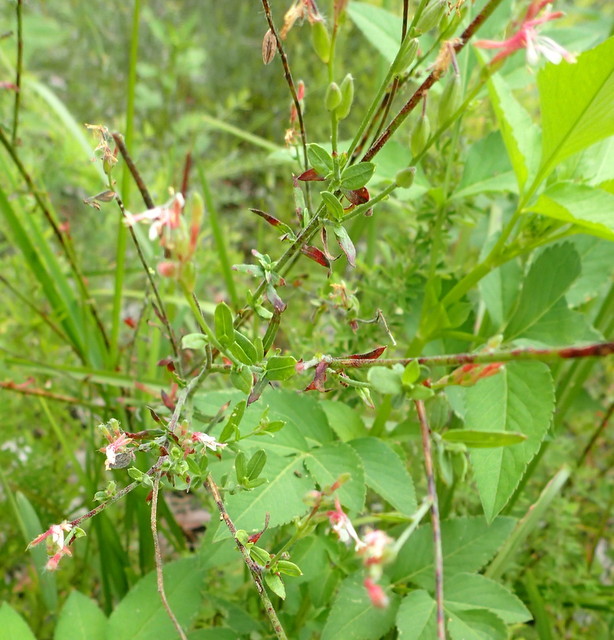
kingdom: Plantae
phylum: Tracheophyta
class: Magnoliopsida
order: Myrtales
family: Onagraceae
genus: Oenothera
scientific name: Oenothera simulans
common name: Southern beeblossom
